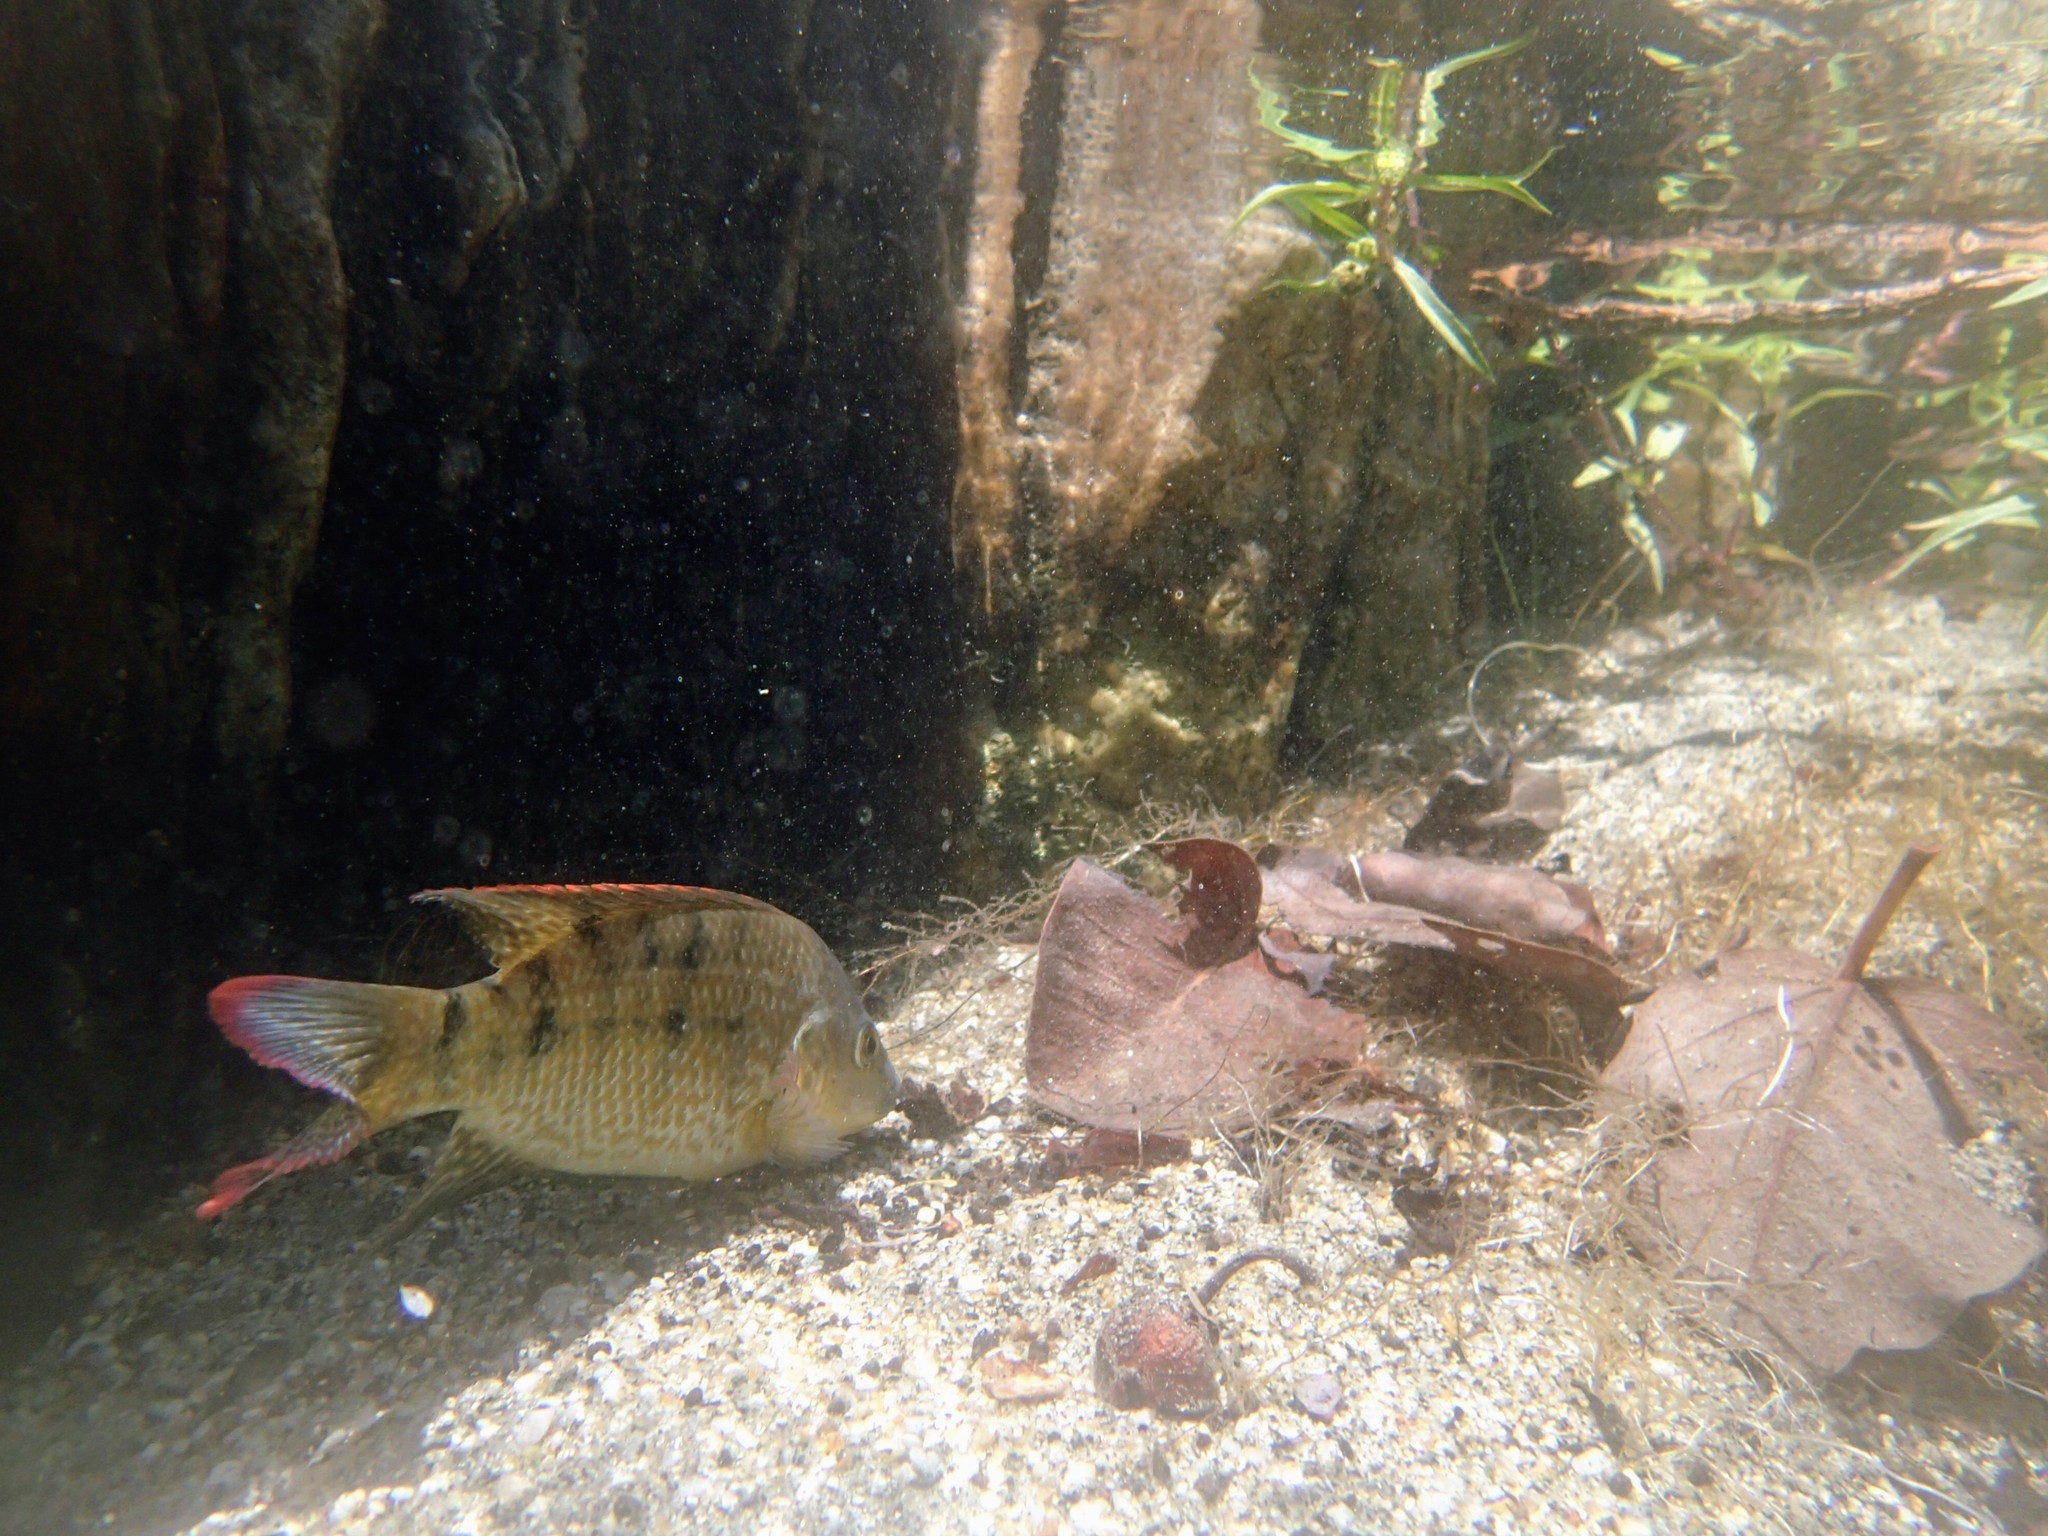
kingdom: Animalia
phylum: Chordata
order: Perciformes
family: Cichlidae
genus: Oreochromis
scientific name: Oreochromis mossambicus
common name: Mozambique tilapia
